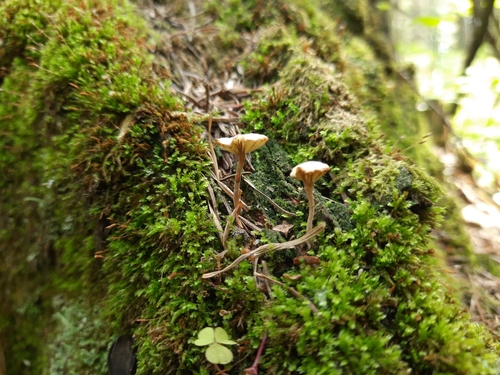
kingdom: Fungi
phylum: Basidiomycota
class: Agaricomycetes
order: Agaricales
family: Hygrophoraceae
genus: Lichenomphalia
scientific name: Lichenomphalia umbellifera
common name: Heath navel
